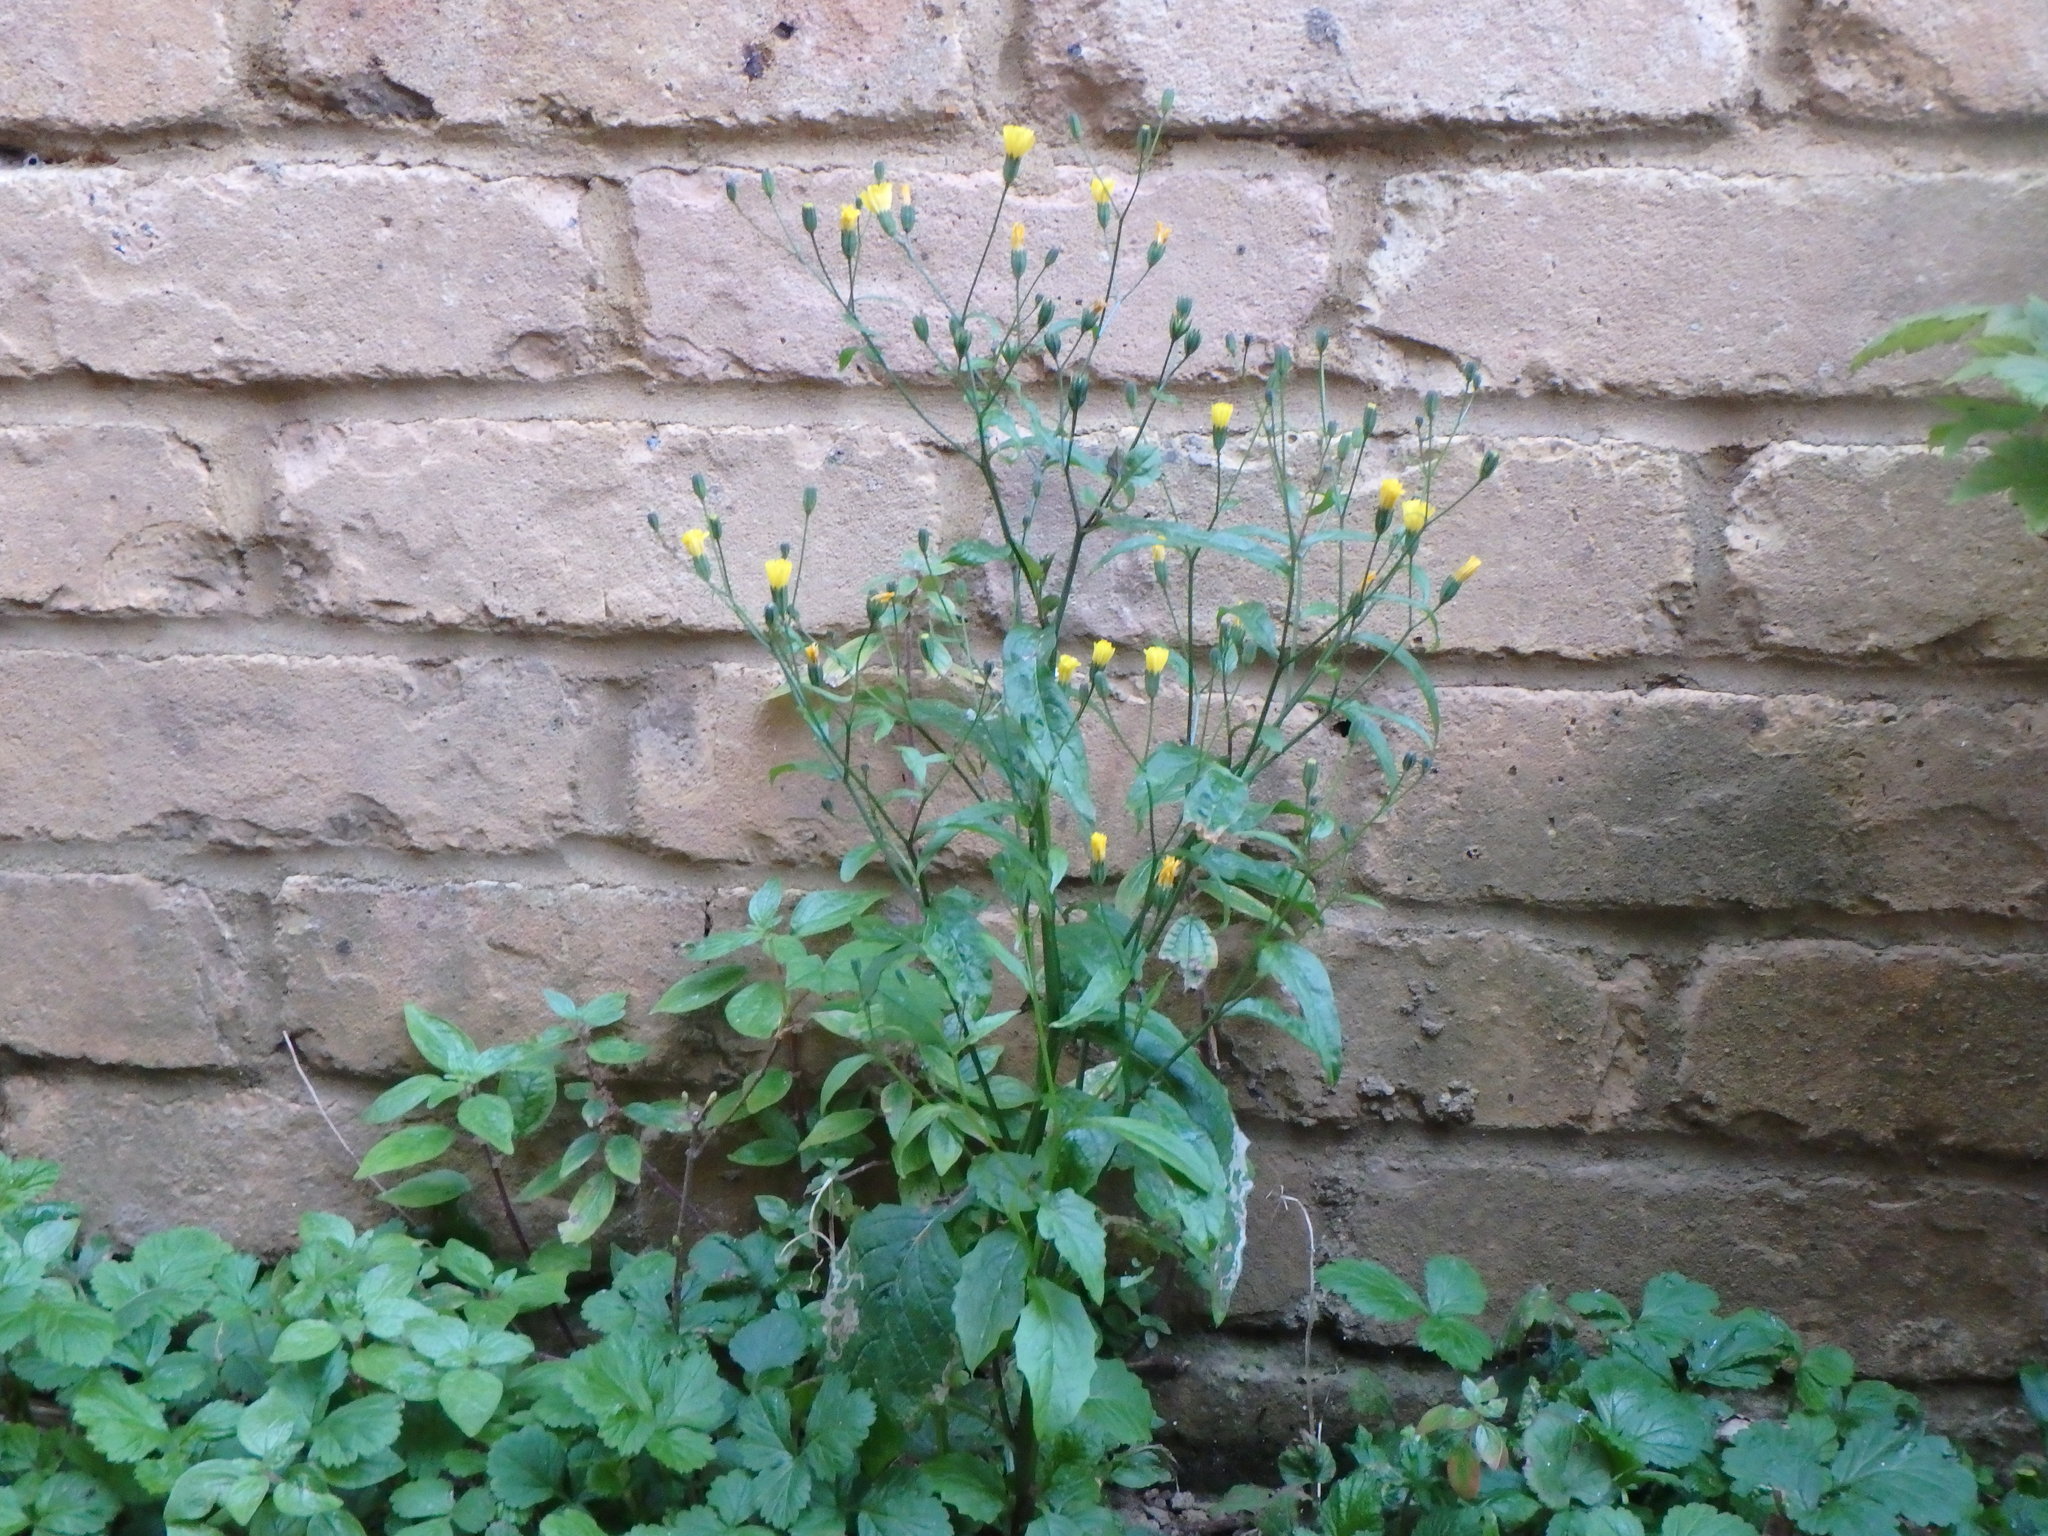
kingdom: Plantae
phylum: Tracheophyta
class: Magnoliopsida
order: Asterales
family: Asteraceae
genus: Lapsana
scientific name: Lapsana communis
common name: Nipplewort
